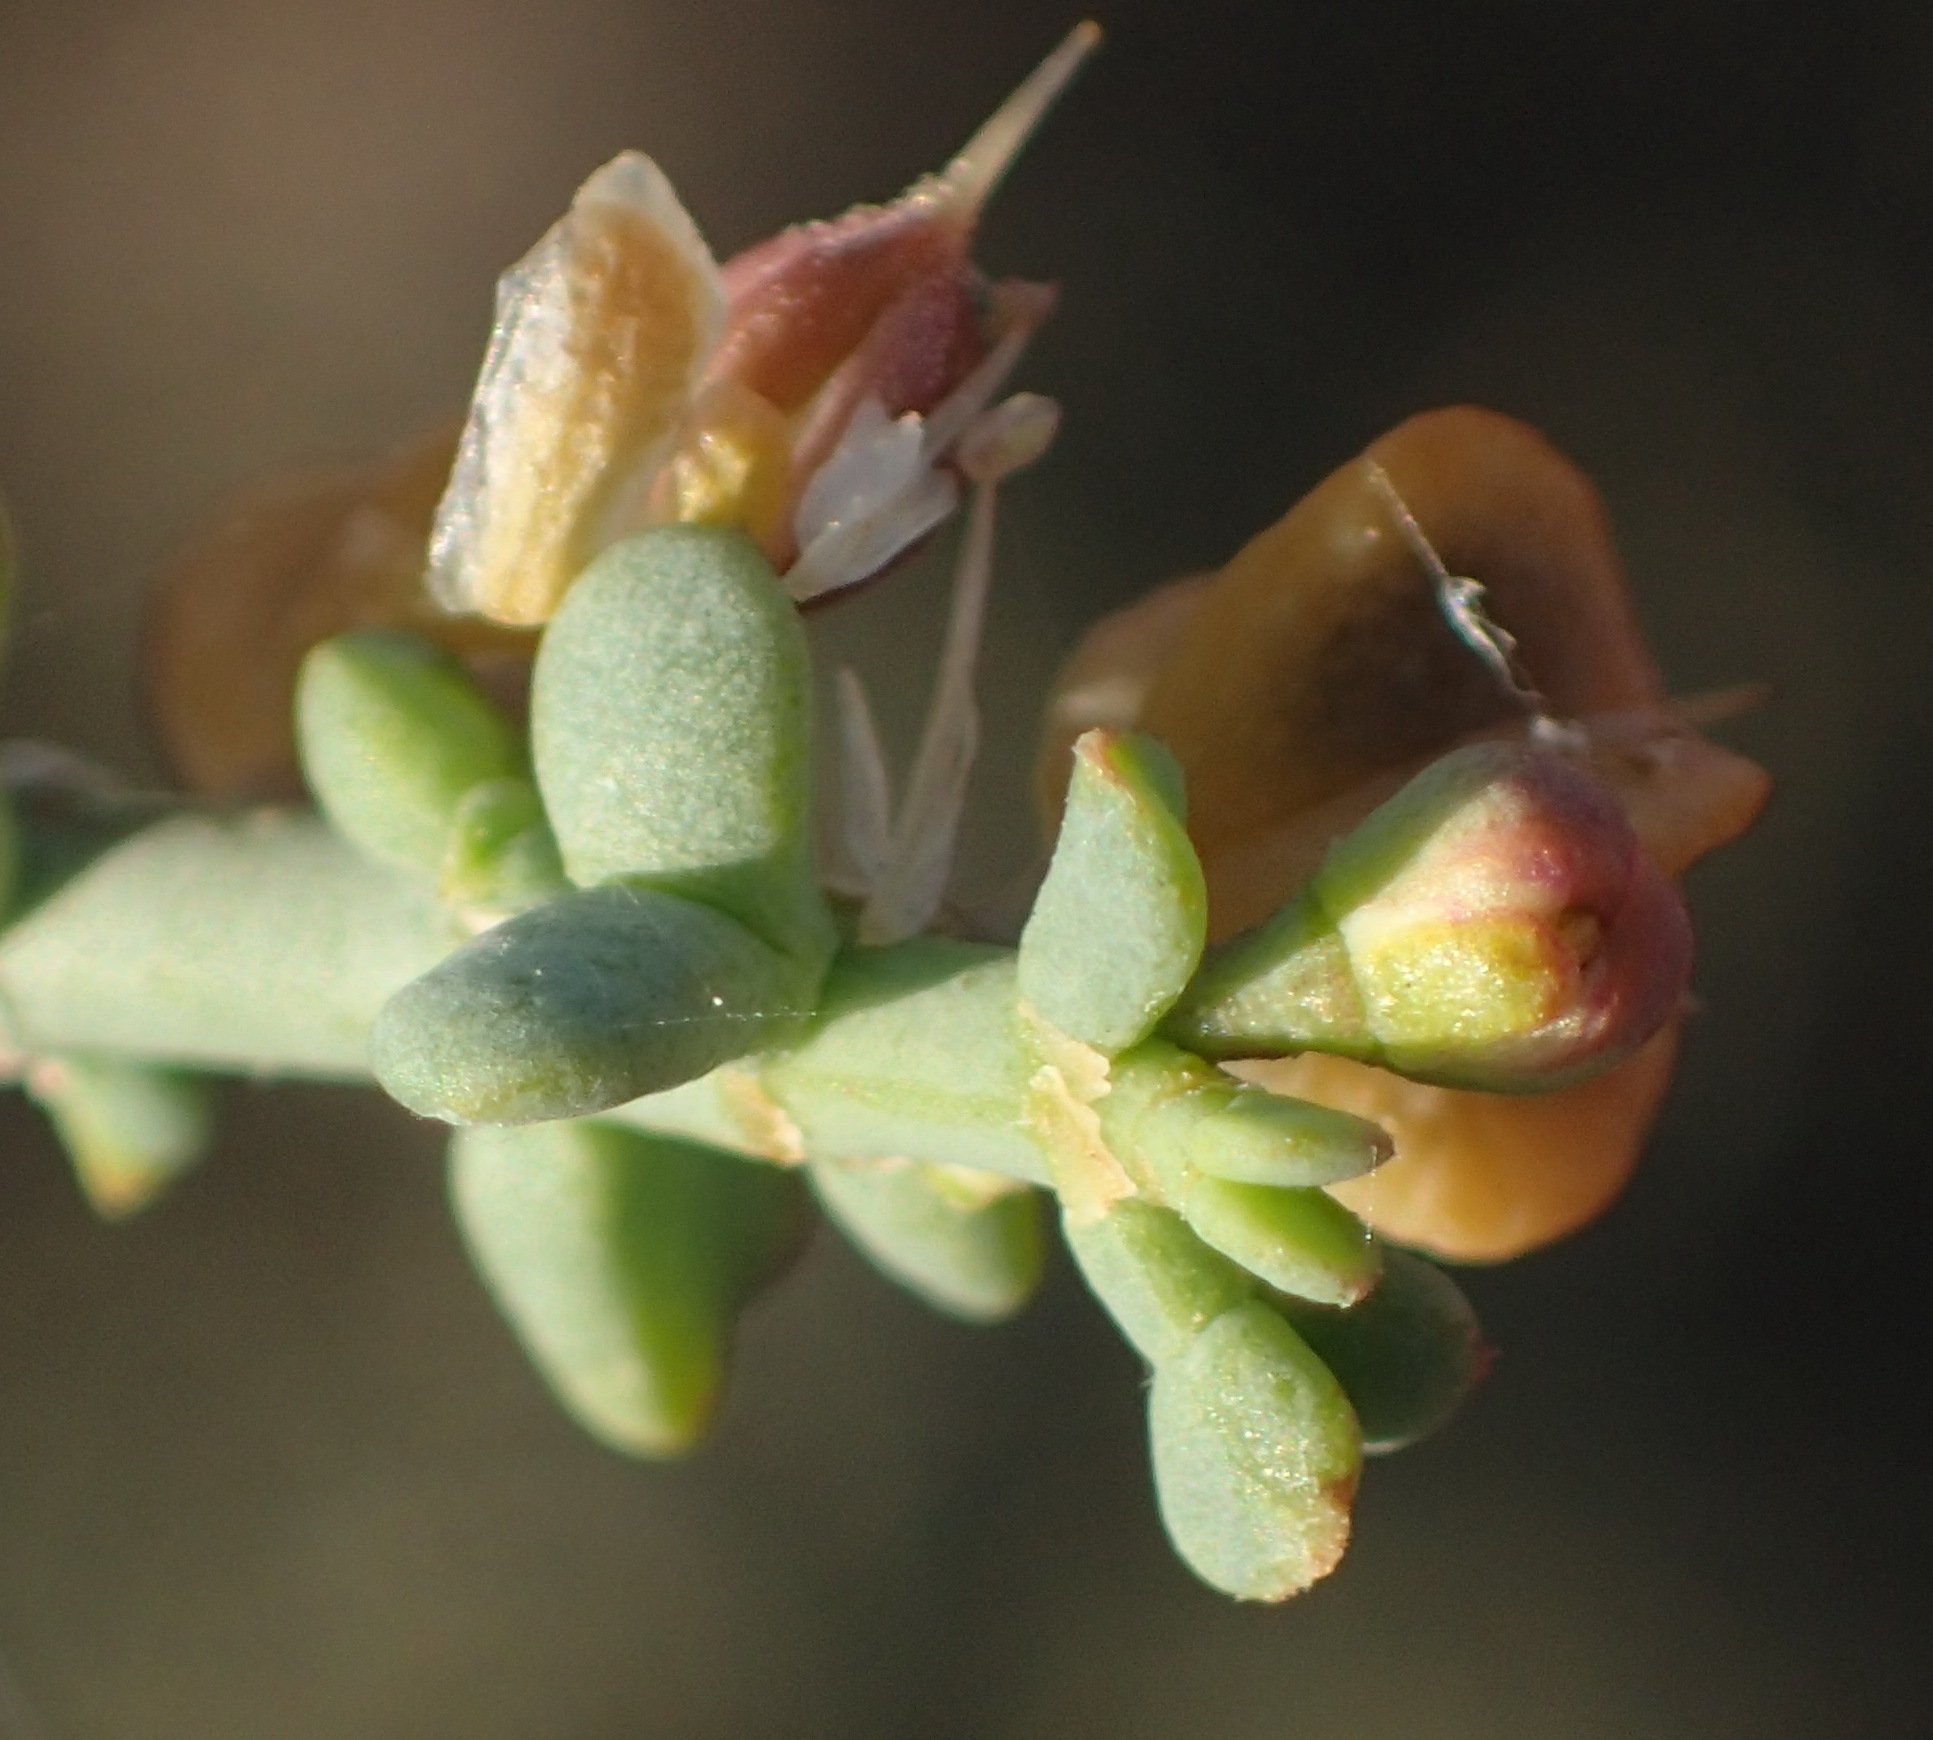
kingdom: Plantae
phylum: Tracheophyta
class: Magnoliopsida
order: Zygophyllales
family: Zygophyllaceae
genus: Tetraena
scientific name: Tetraena chrysopteros
